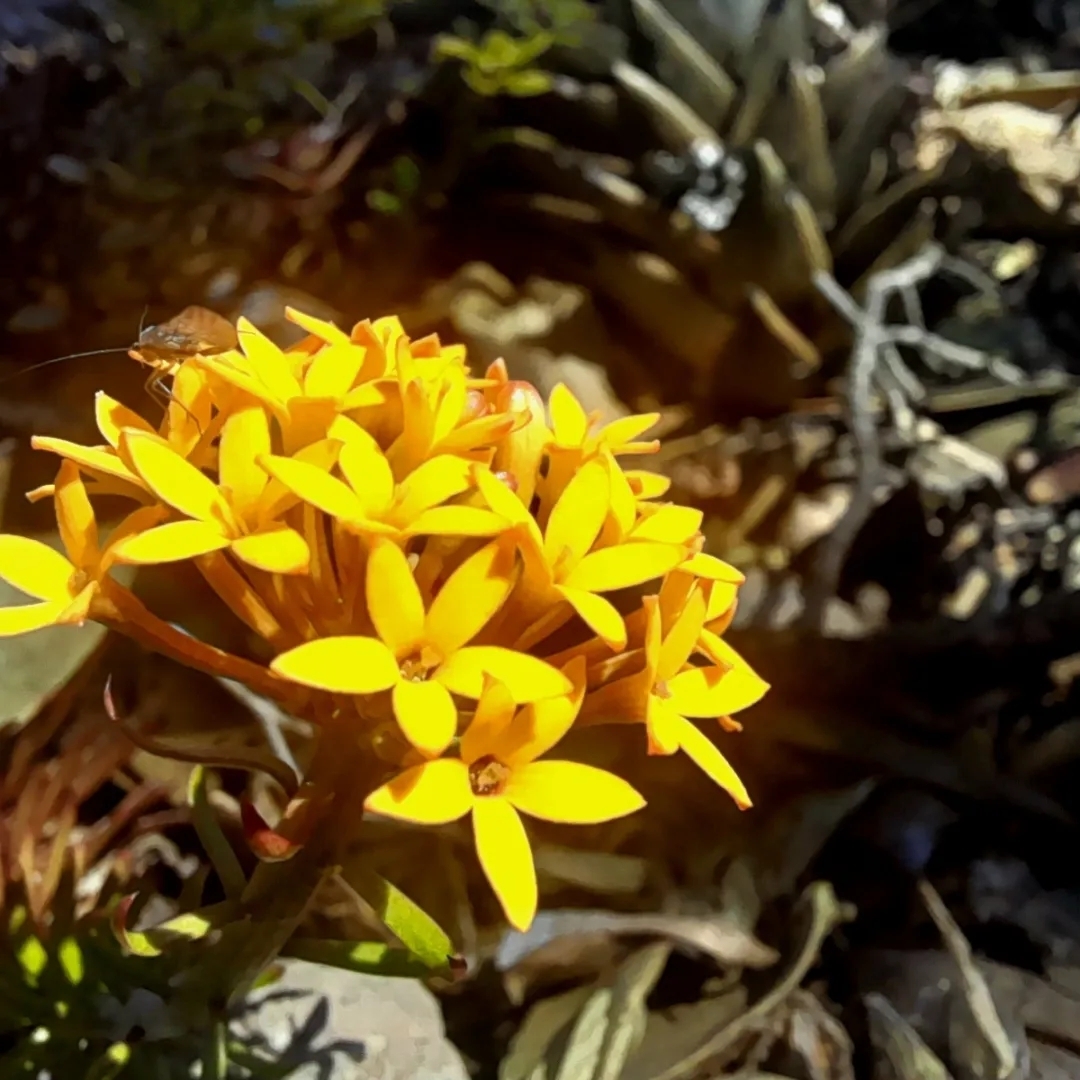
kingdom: Plantae
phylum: Tracheophyta
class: Magnoliopsida
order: Santalales
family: Schoepfiaceae
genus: Quinchamalium
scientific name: Quinchamalium chilense
